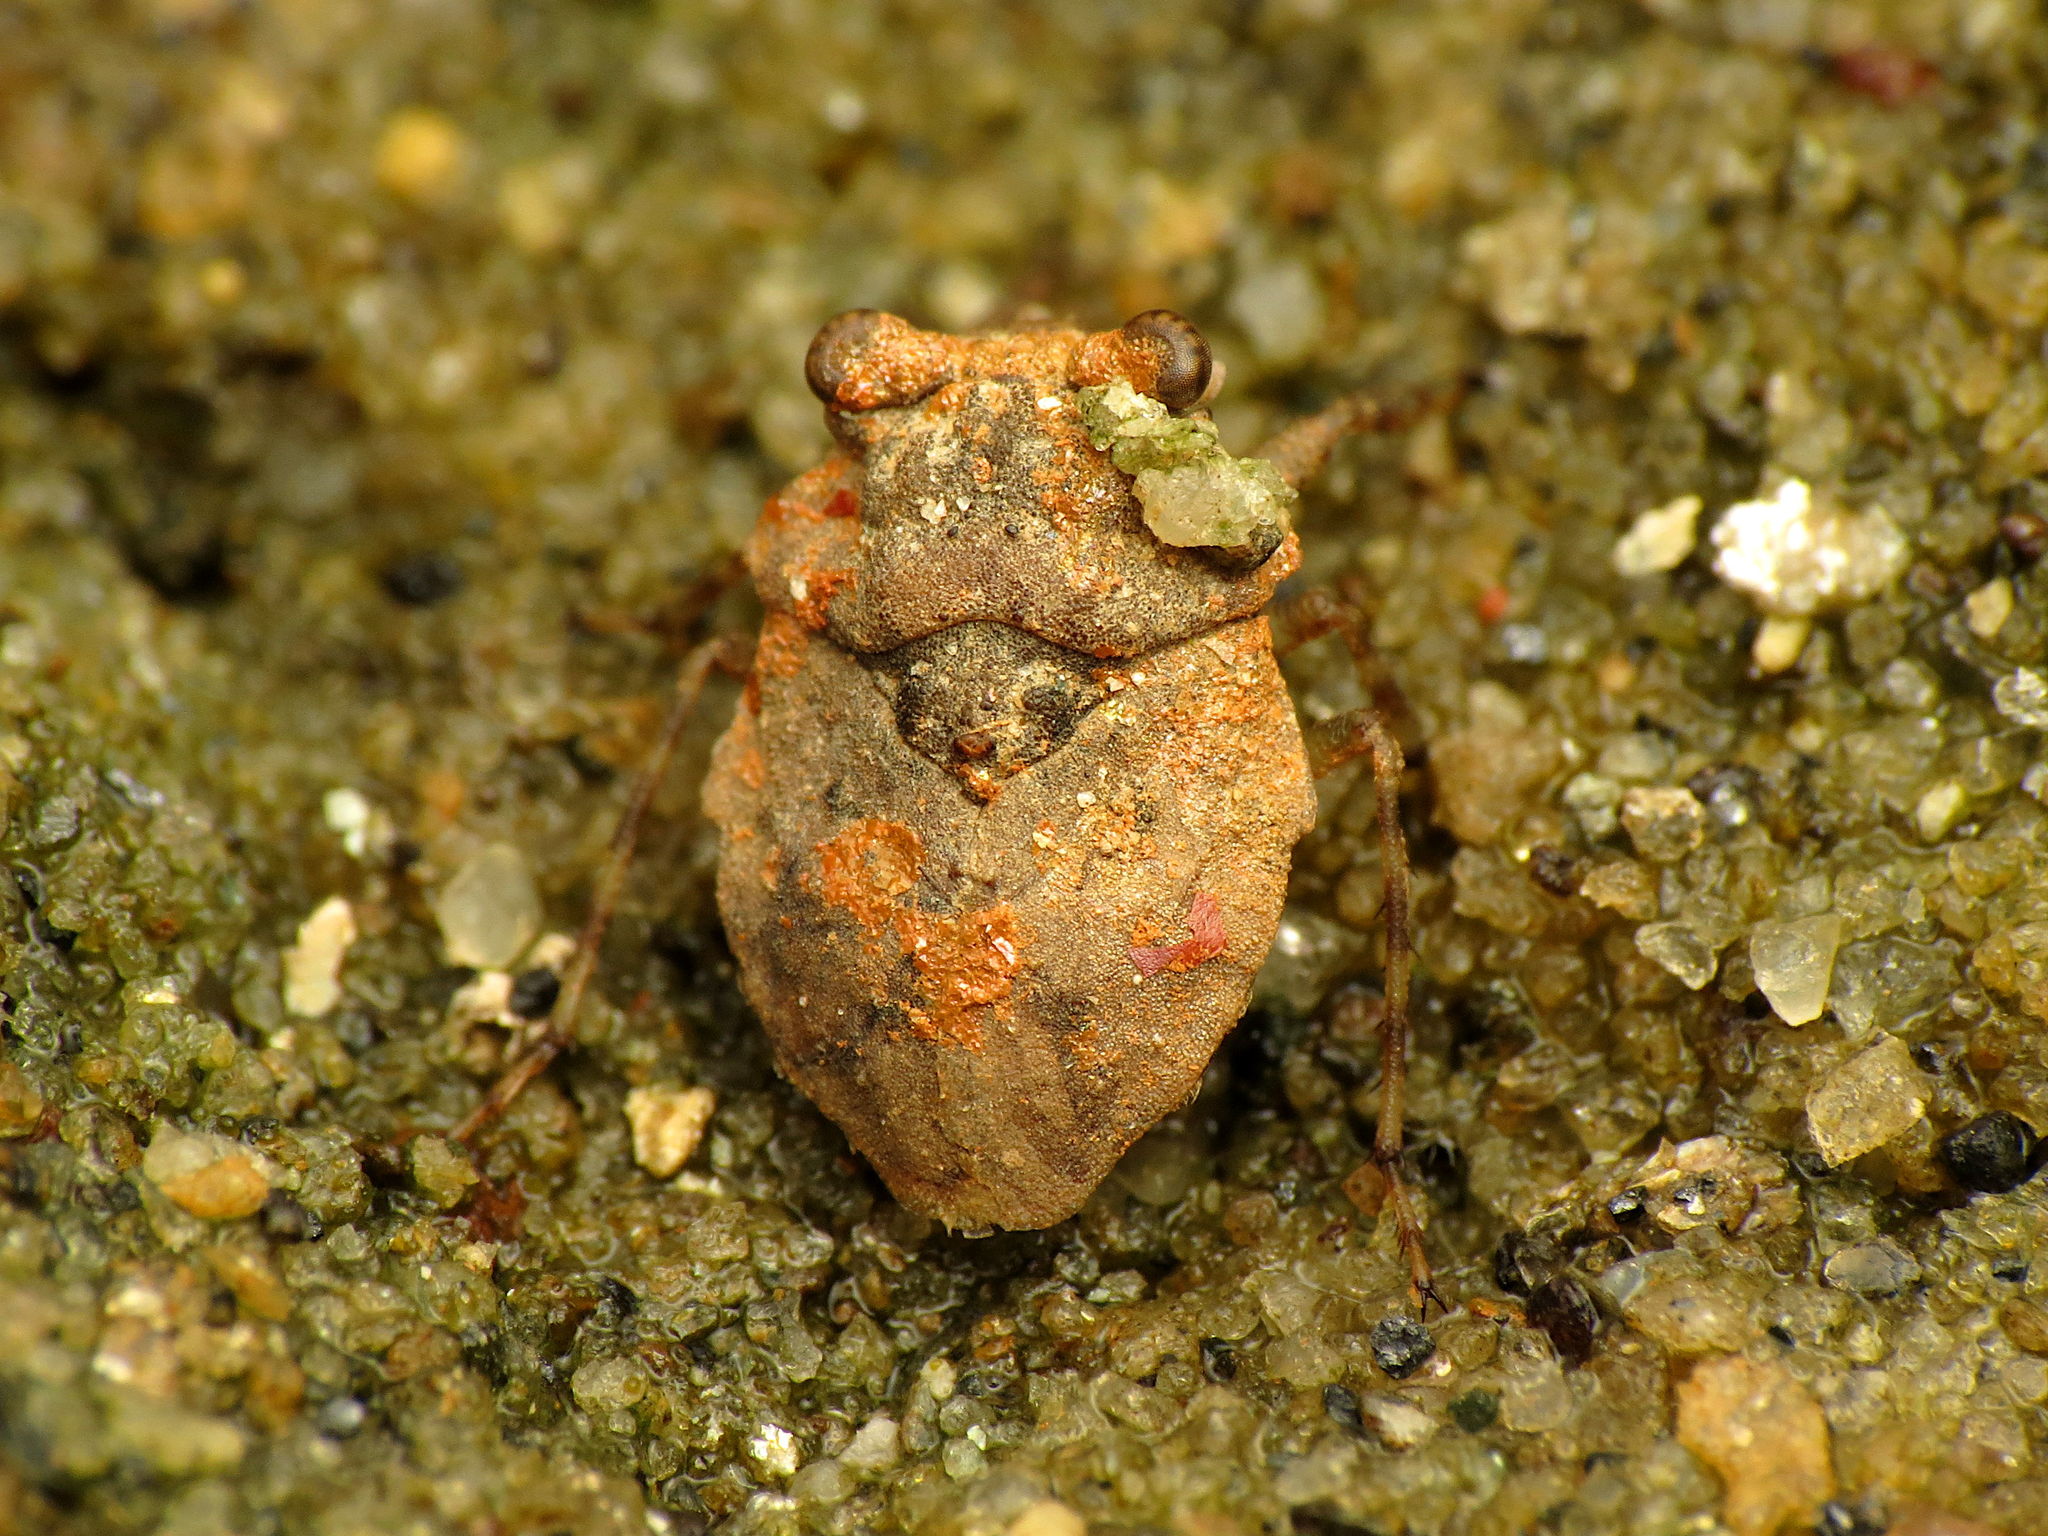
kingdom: Animalia
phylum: Arthropoda
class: Insecta
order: Hemiptera
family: Gelastocoridae
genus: Gelastocoris
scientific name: Gelastocoris oculatus
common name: Toad bug
